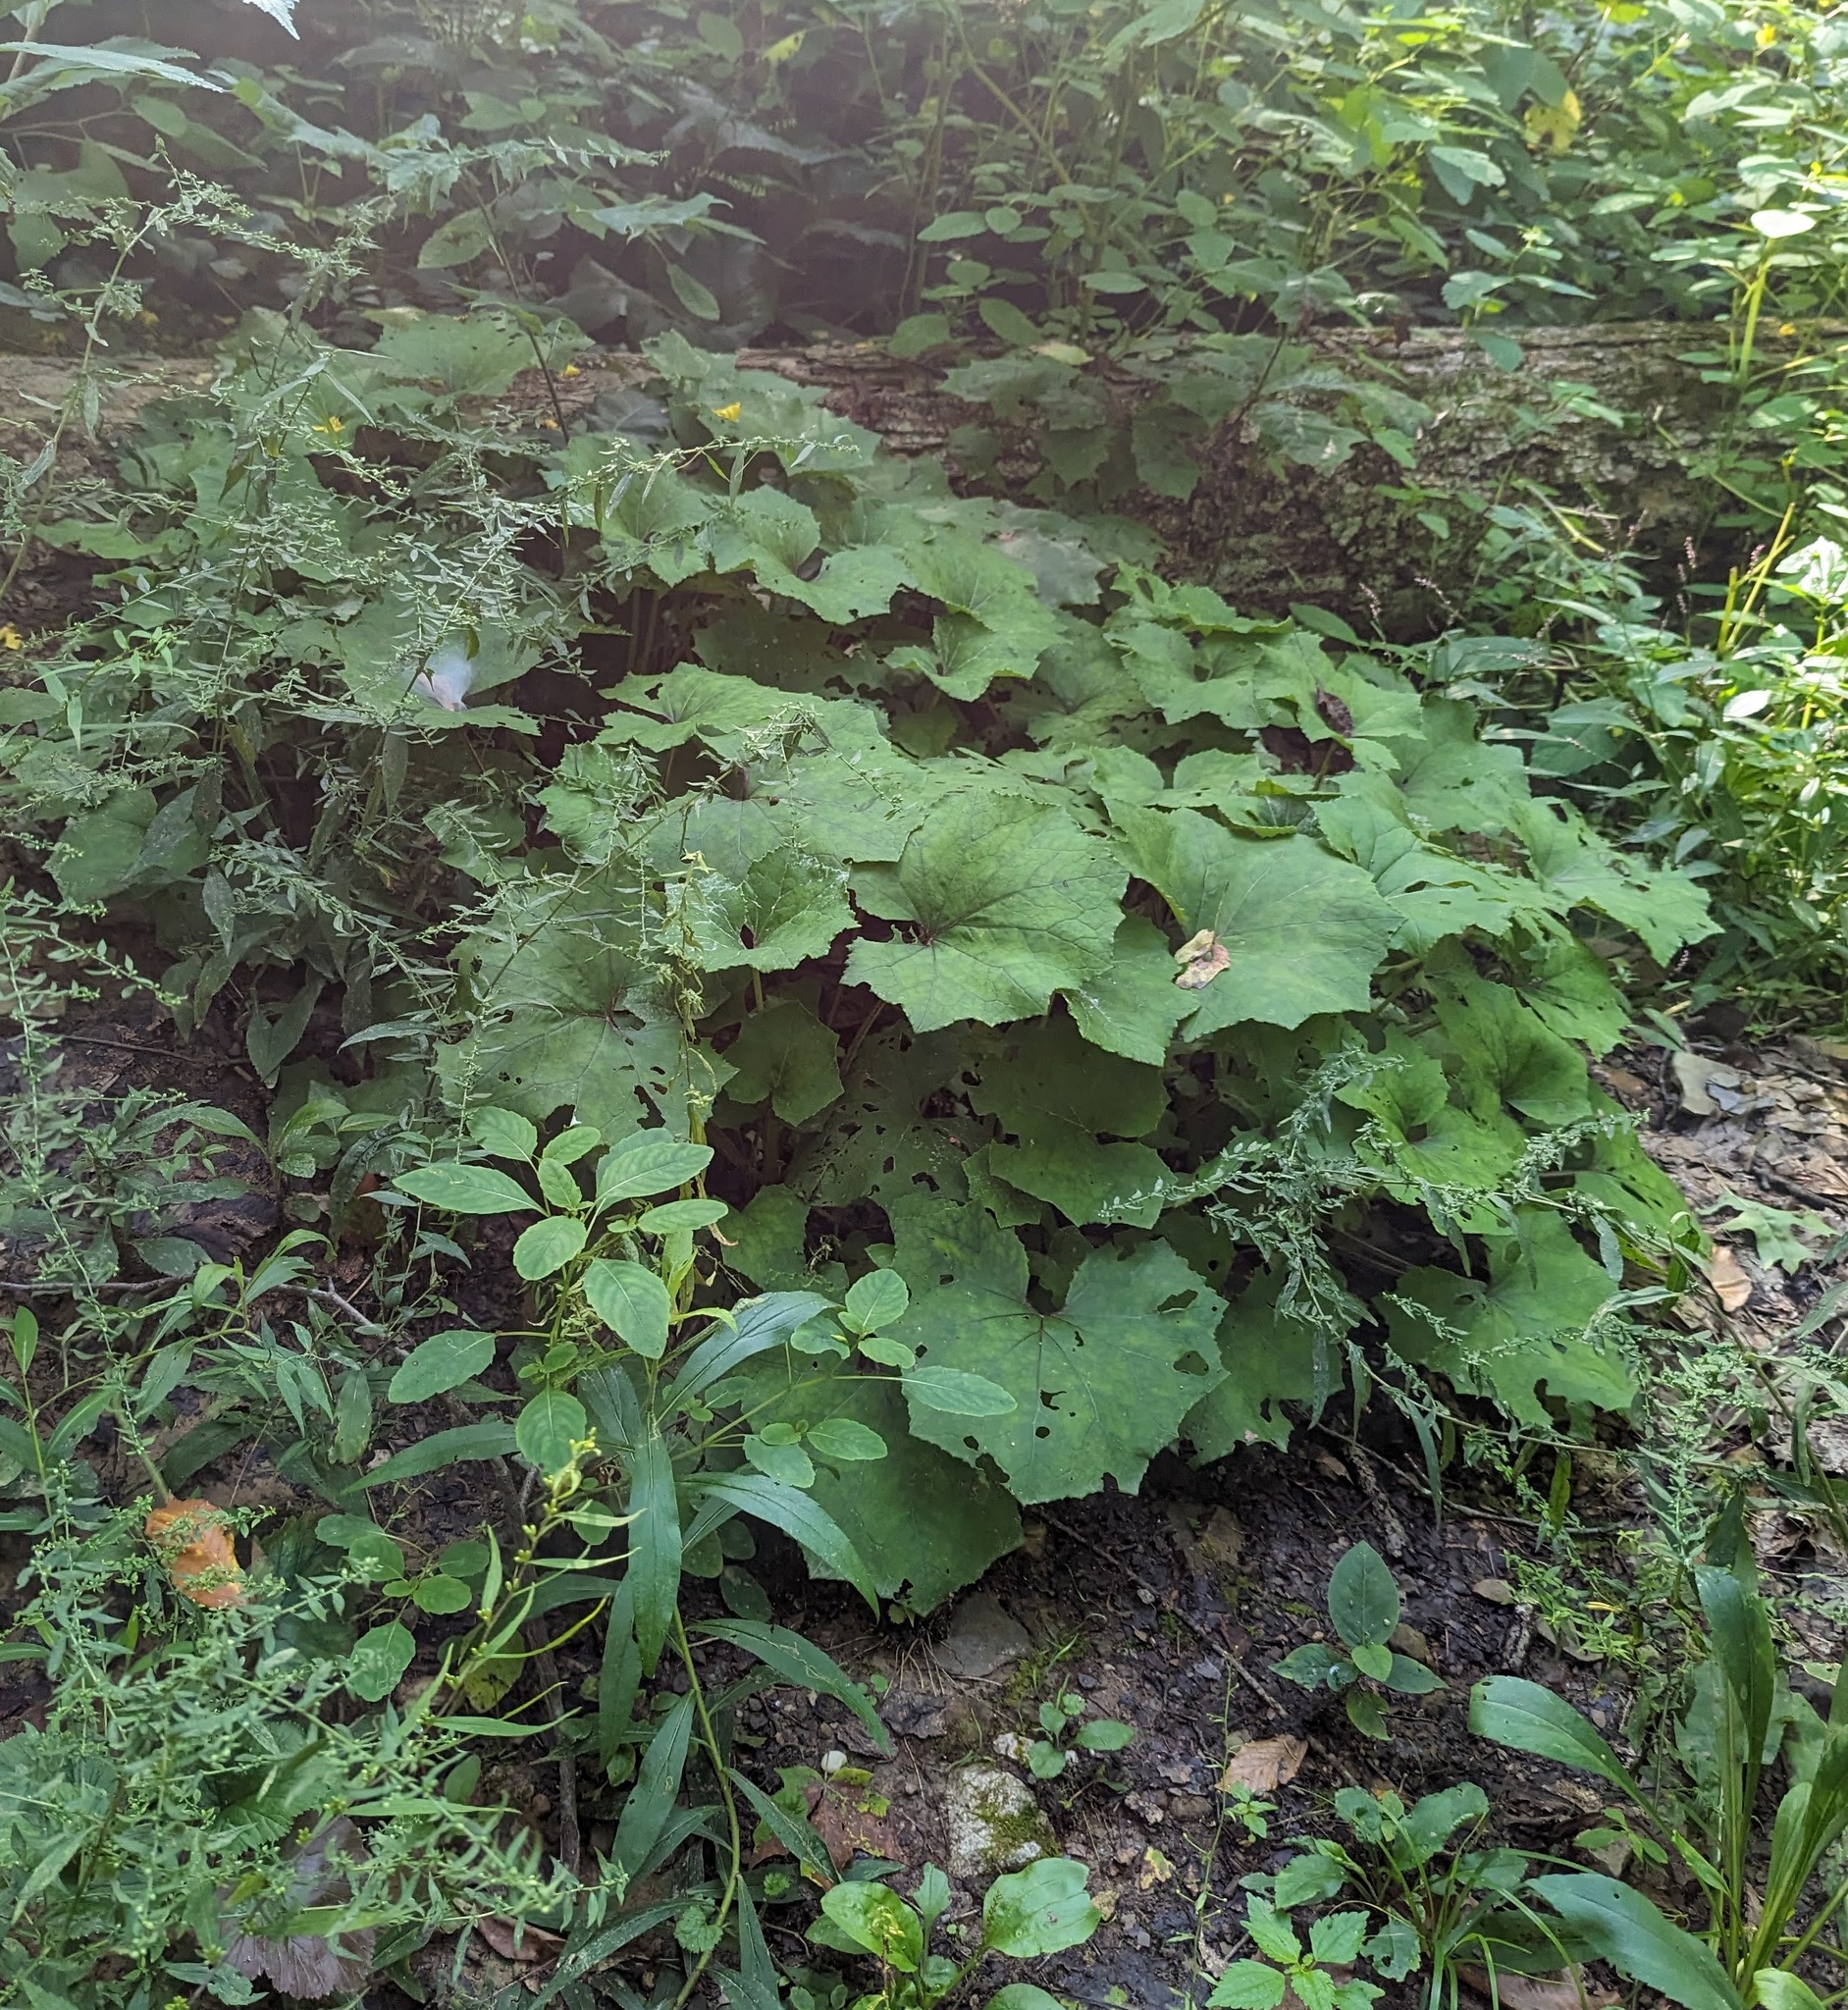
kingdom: Plantae
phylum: Tracheophyta
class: Magnoliopsida
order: Asterales
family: Asteraceae
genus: Tussilago
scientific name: Tussilago farfara
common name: Coltsfoot
